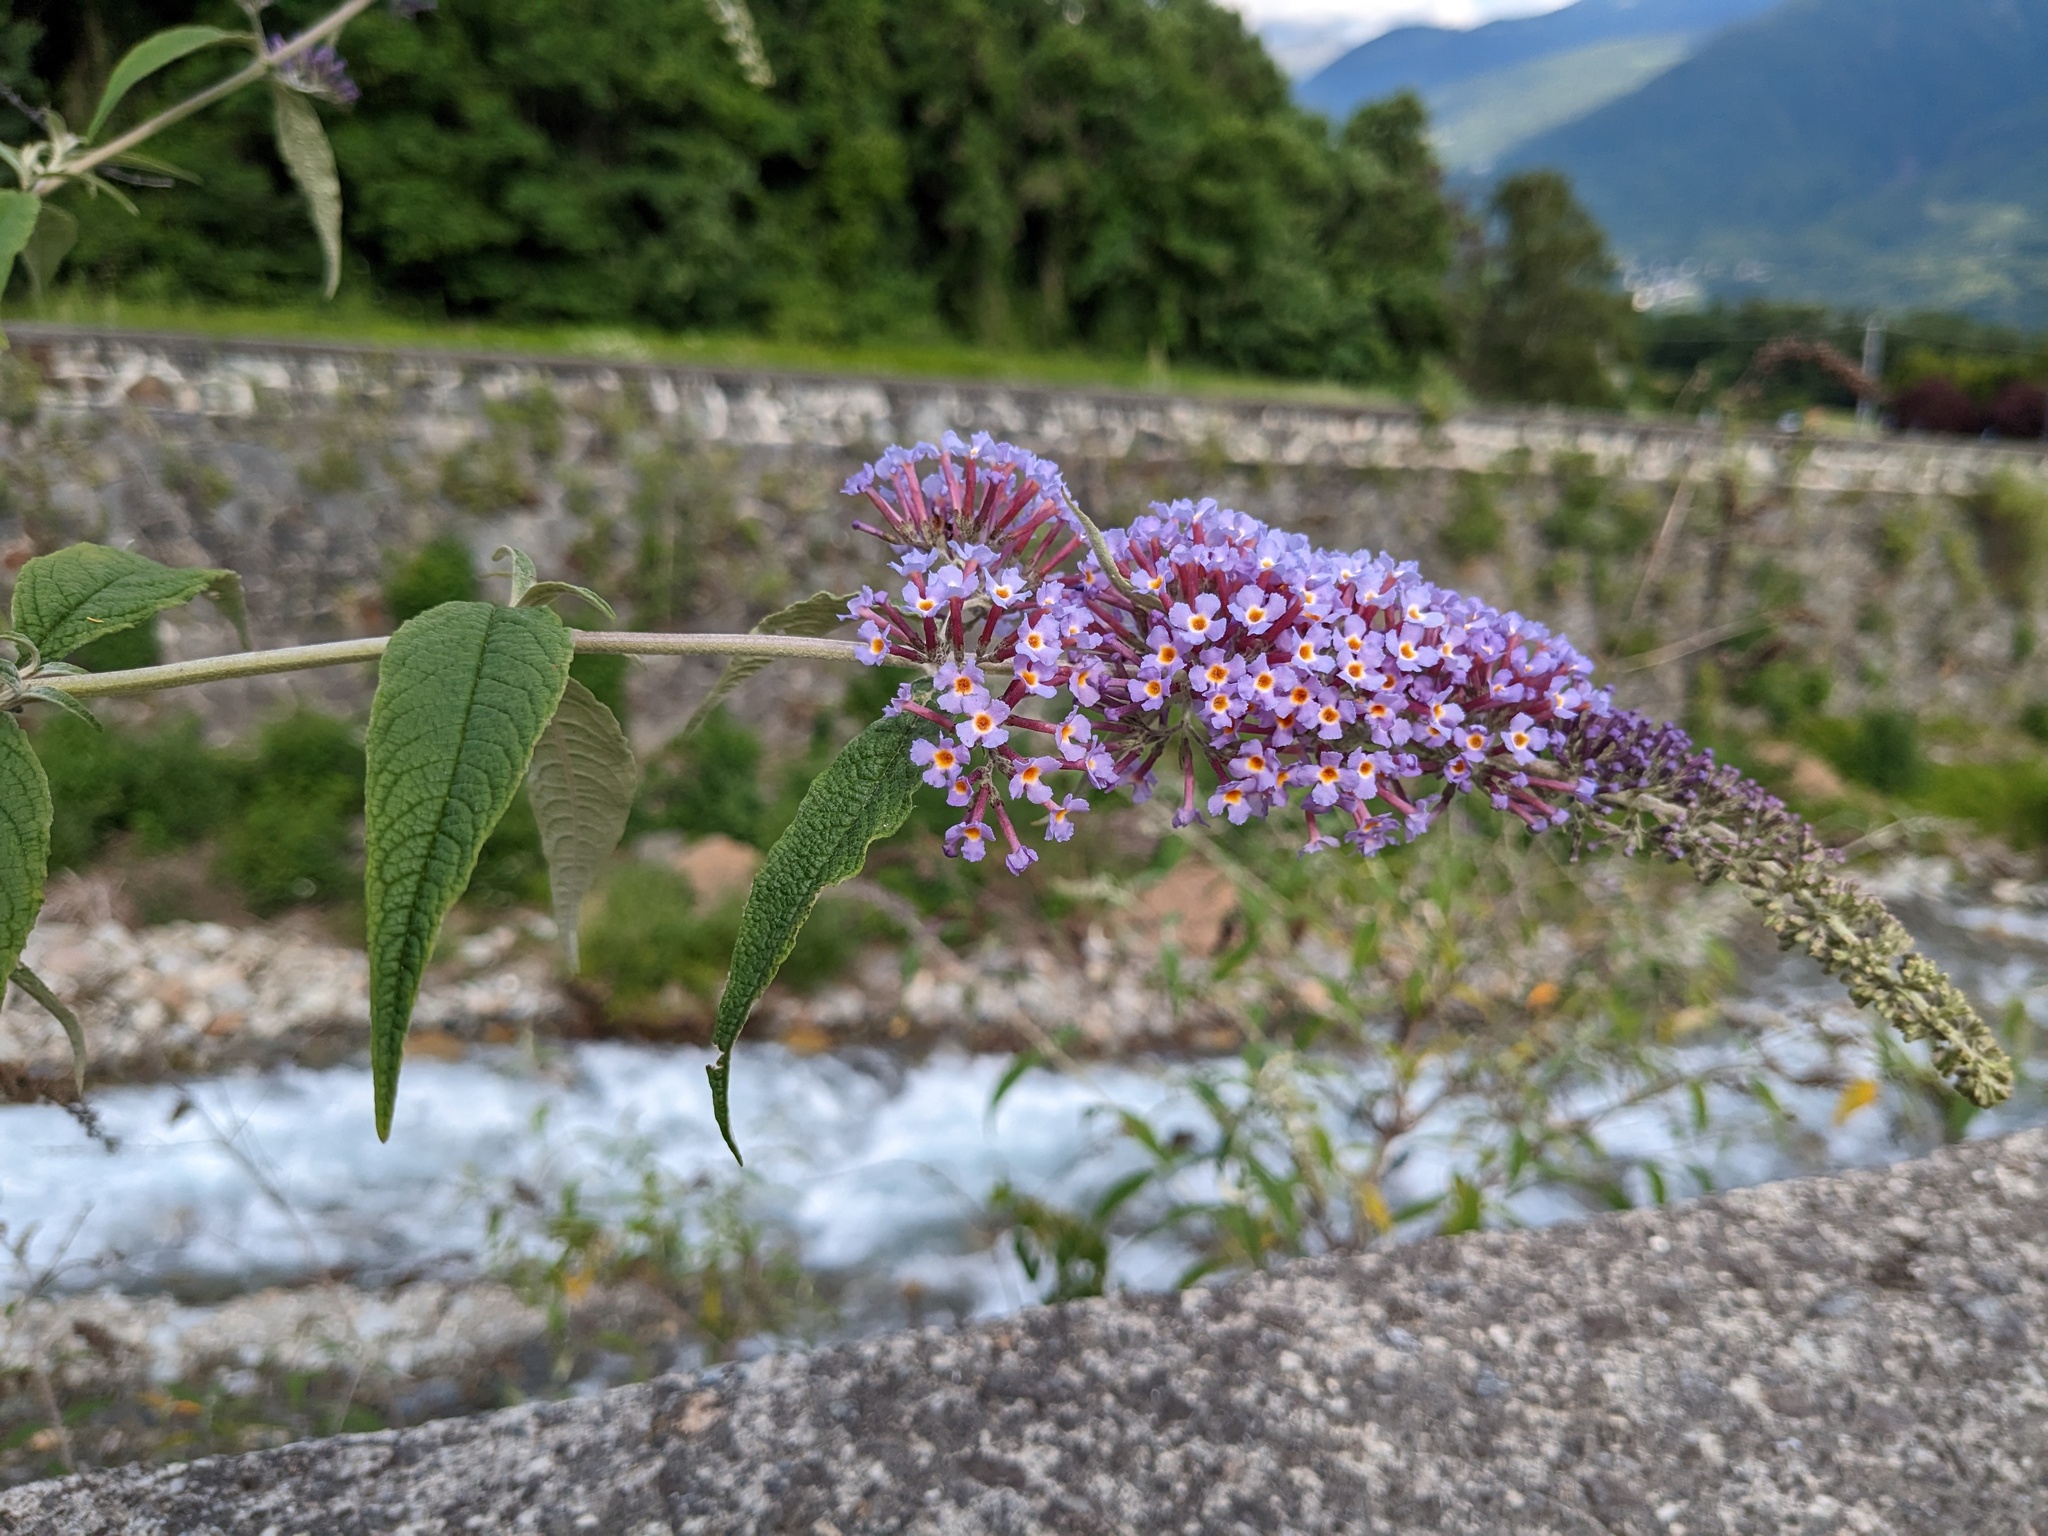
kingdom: Plantae
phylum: Tracheophyta
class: Magnoliopsida
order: Lamiales
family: Scrophulariaceae
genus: Buddleja
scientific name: Buddleja davidii
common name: Butterfly-bush
